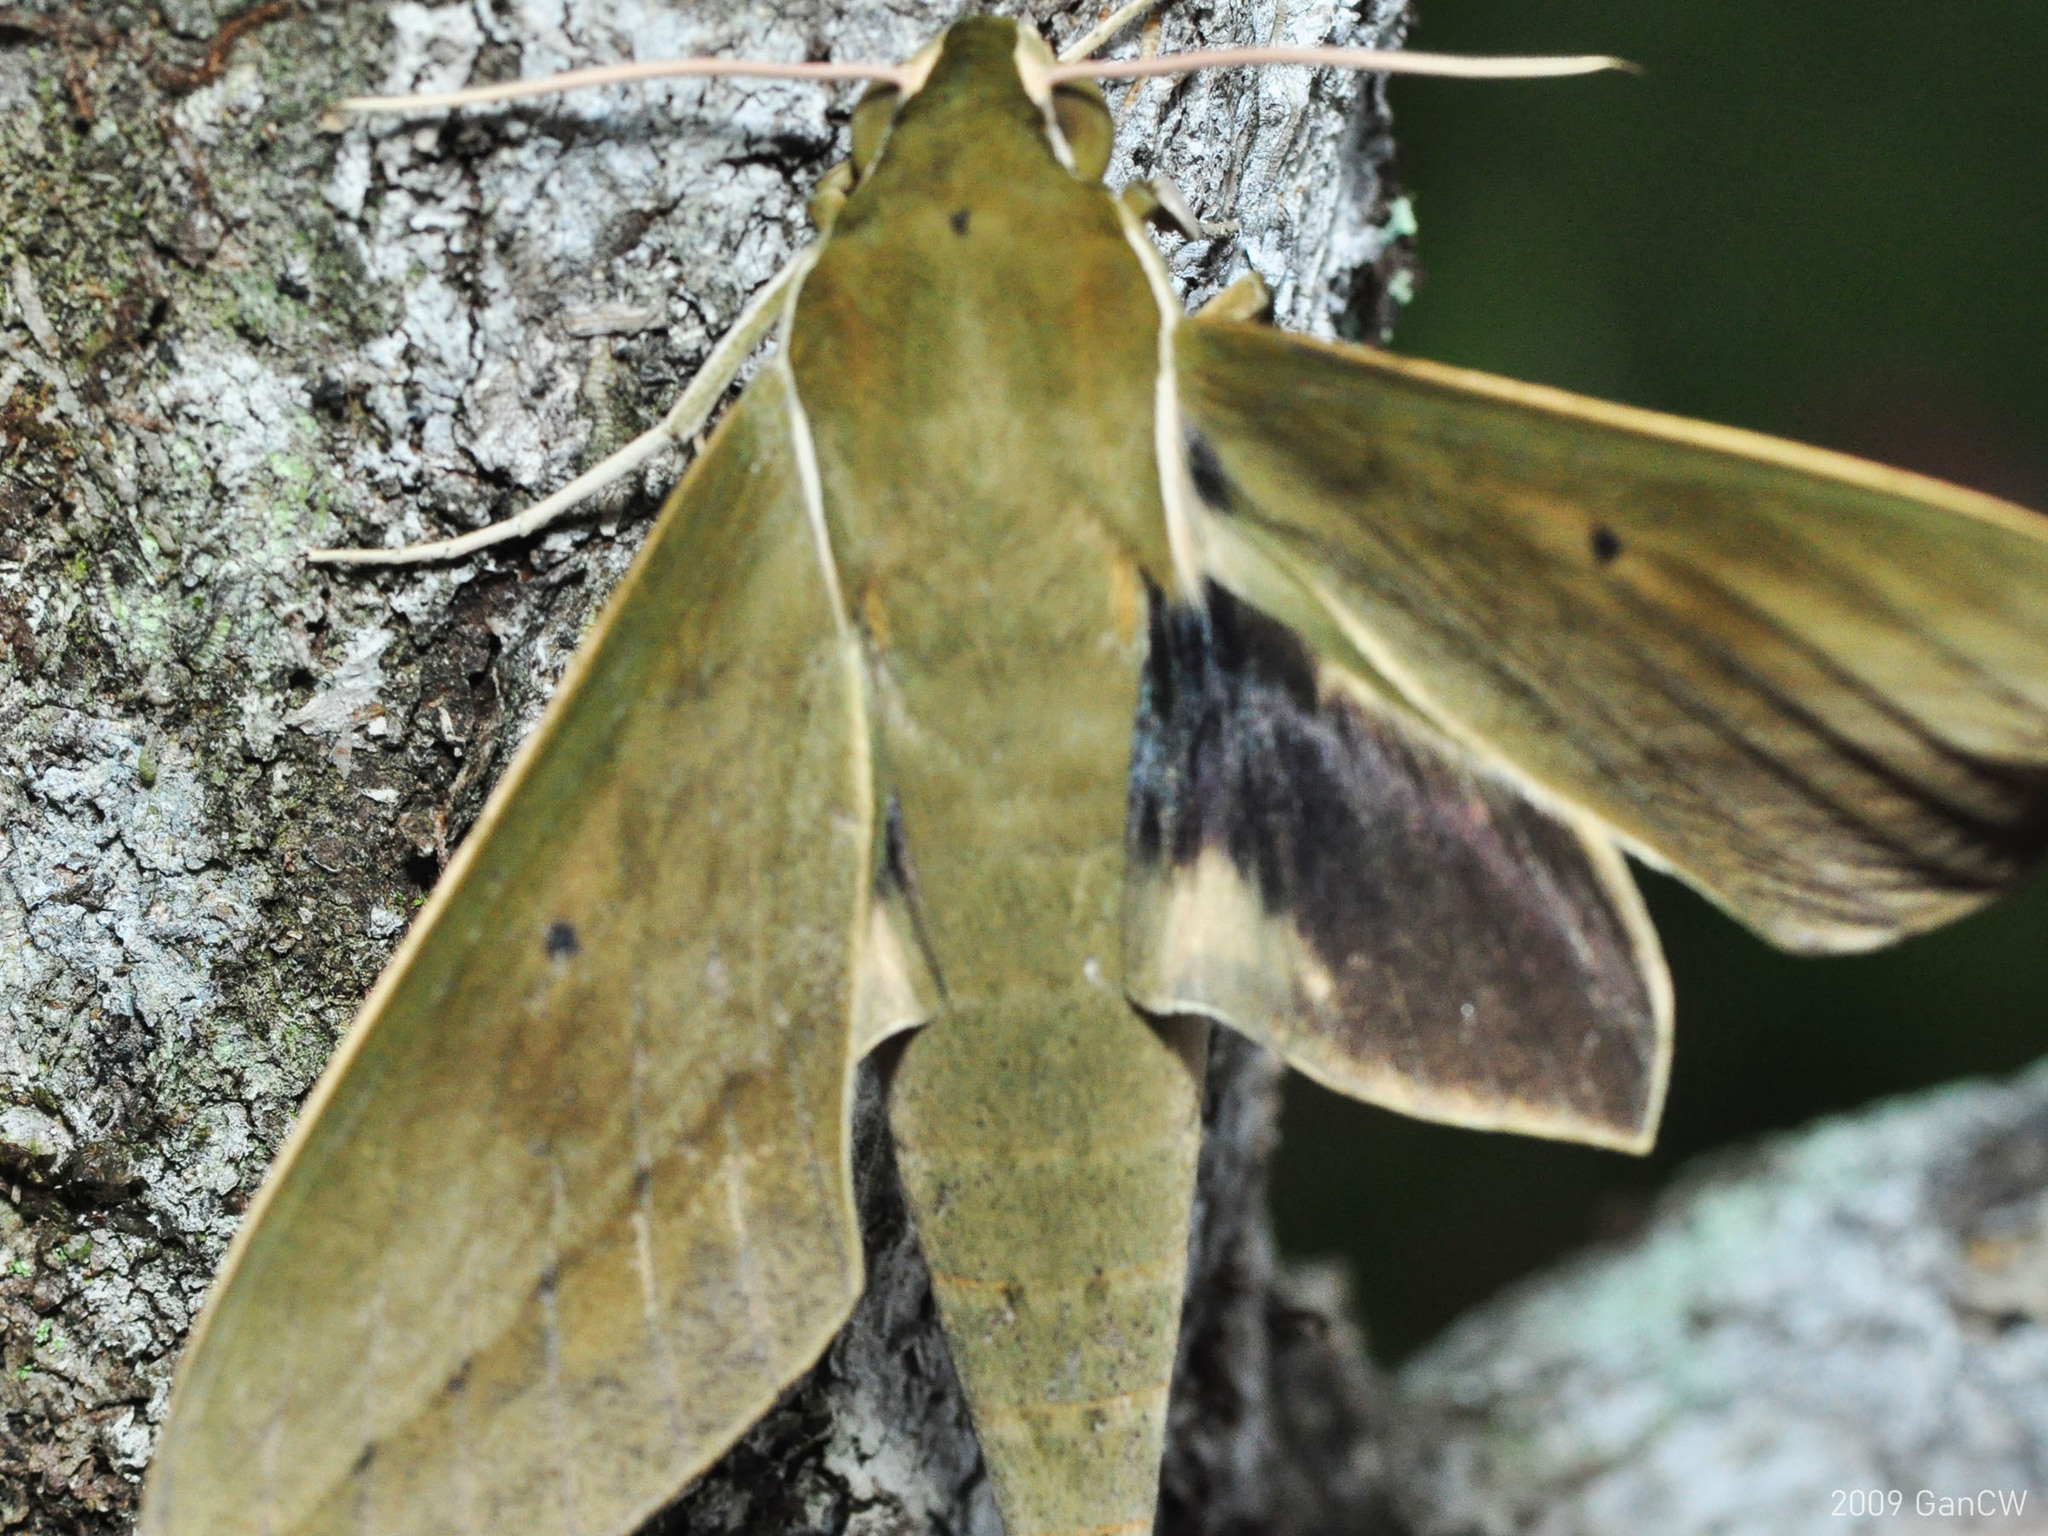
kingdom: Animalia
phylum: Arthropoda
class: Insecta
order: Lepidoptera
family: Sphingidae
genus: Theretra
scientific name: Theretra boisduvalii
